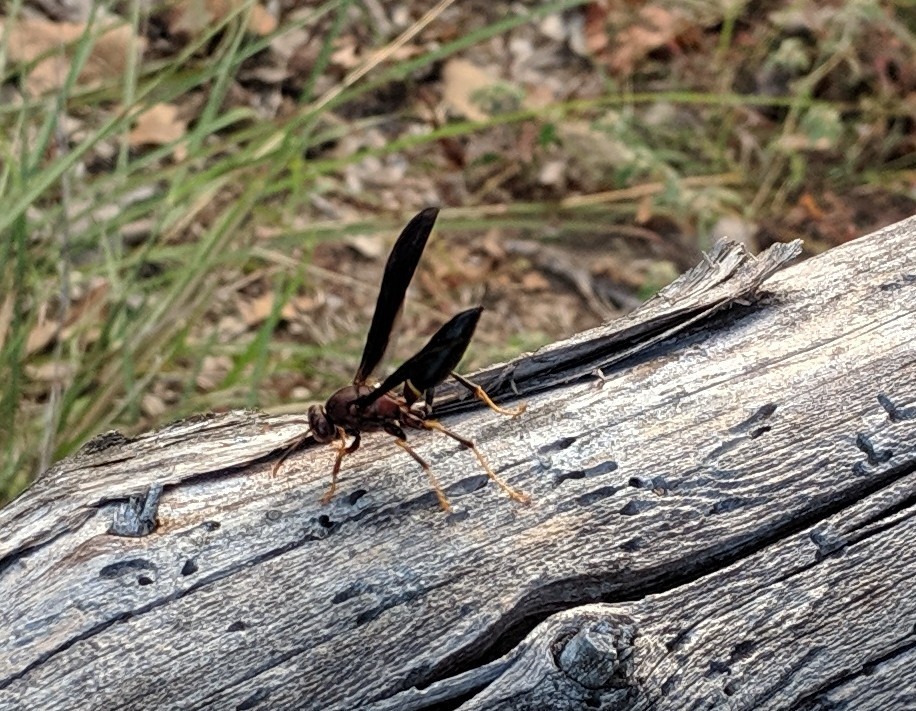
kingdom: Animalia
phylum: Arthropoda
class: Insecta
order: Hymenoptera
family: Eumenidae
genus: Polistes
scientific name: Polistes annularis
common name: Ringed paper wasp
